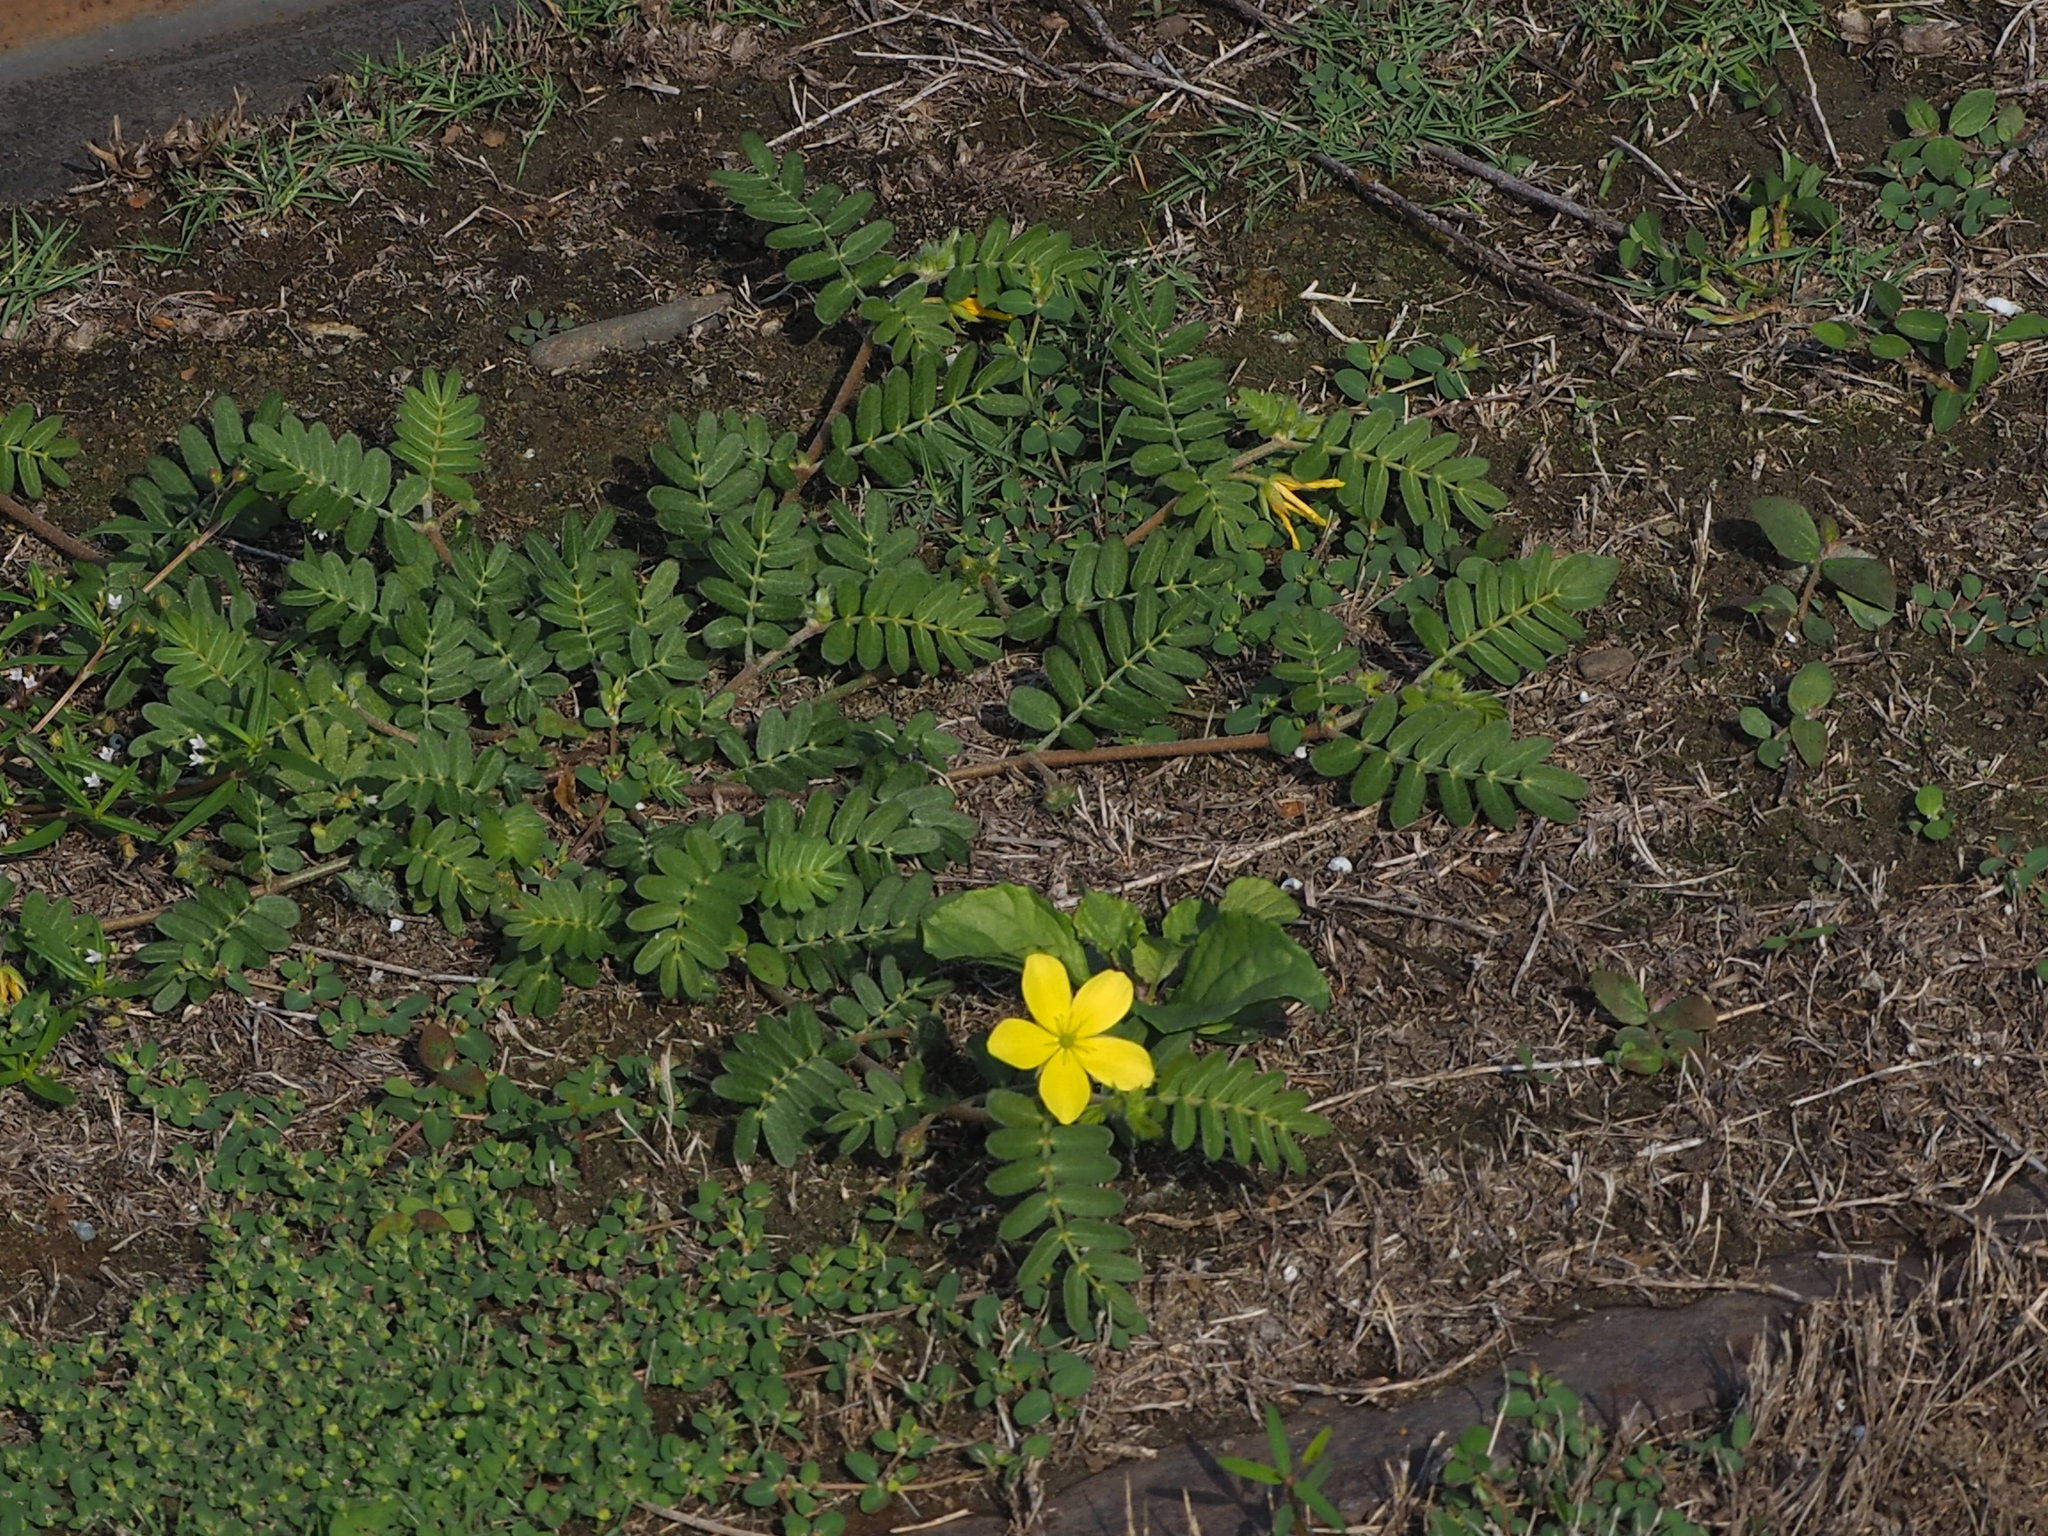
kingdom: Plantae
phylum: Tracheophyta
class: Magnoliopsida
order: Zygophyllales
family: Zygophyllaceae
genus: Tribulus
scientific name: Tribulus cistoides
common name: Jamaican feverplant
